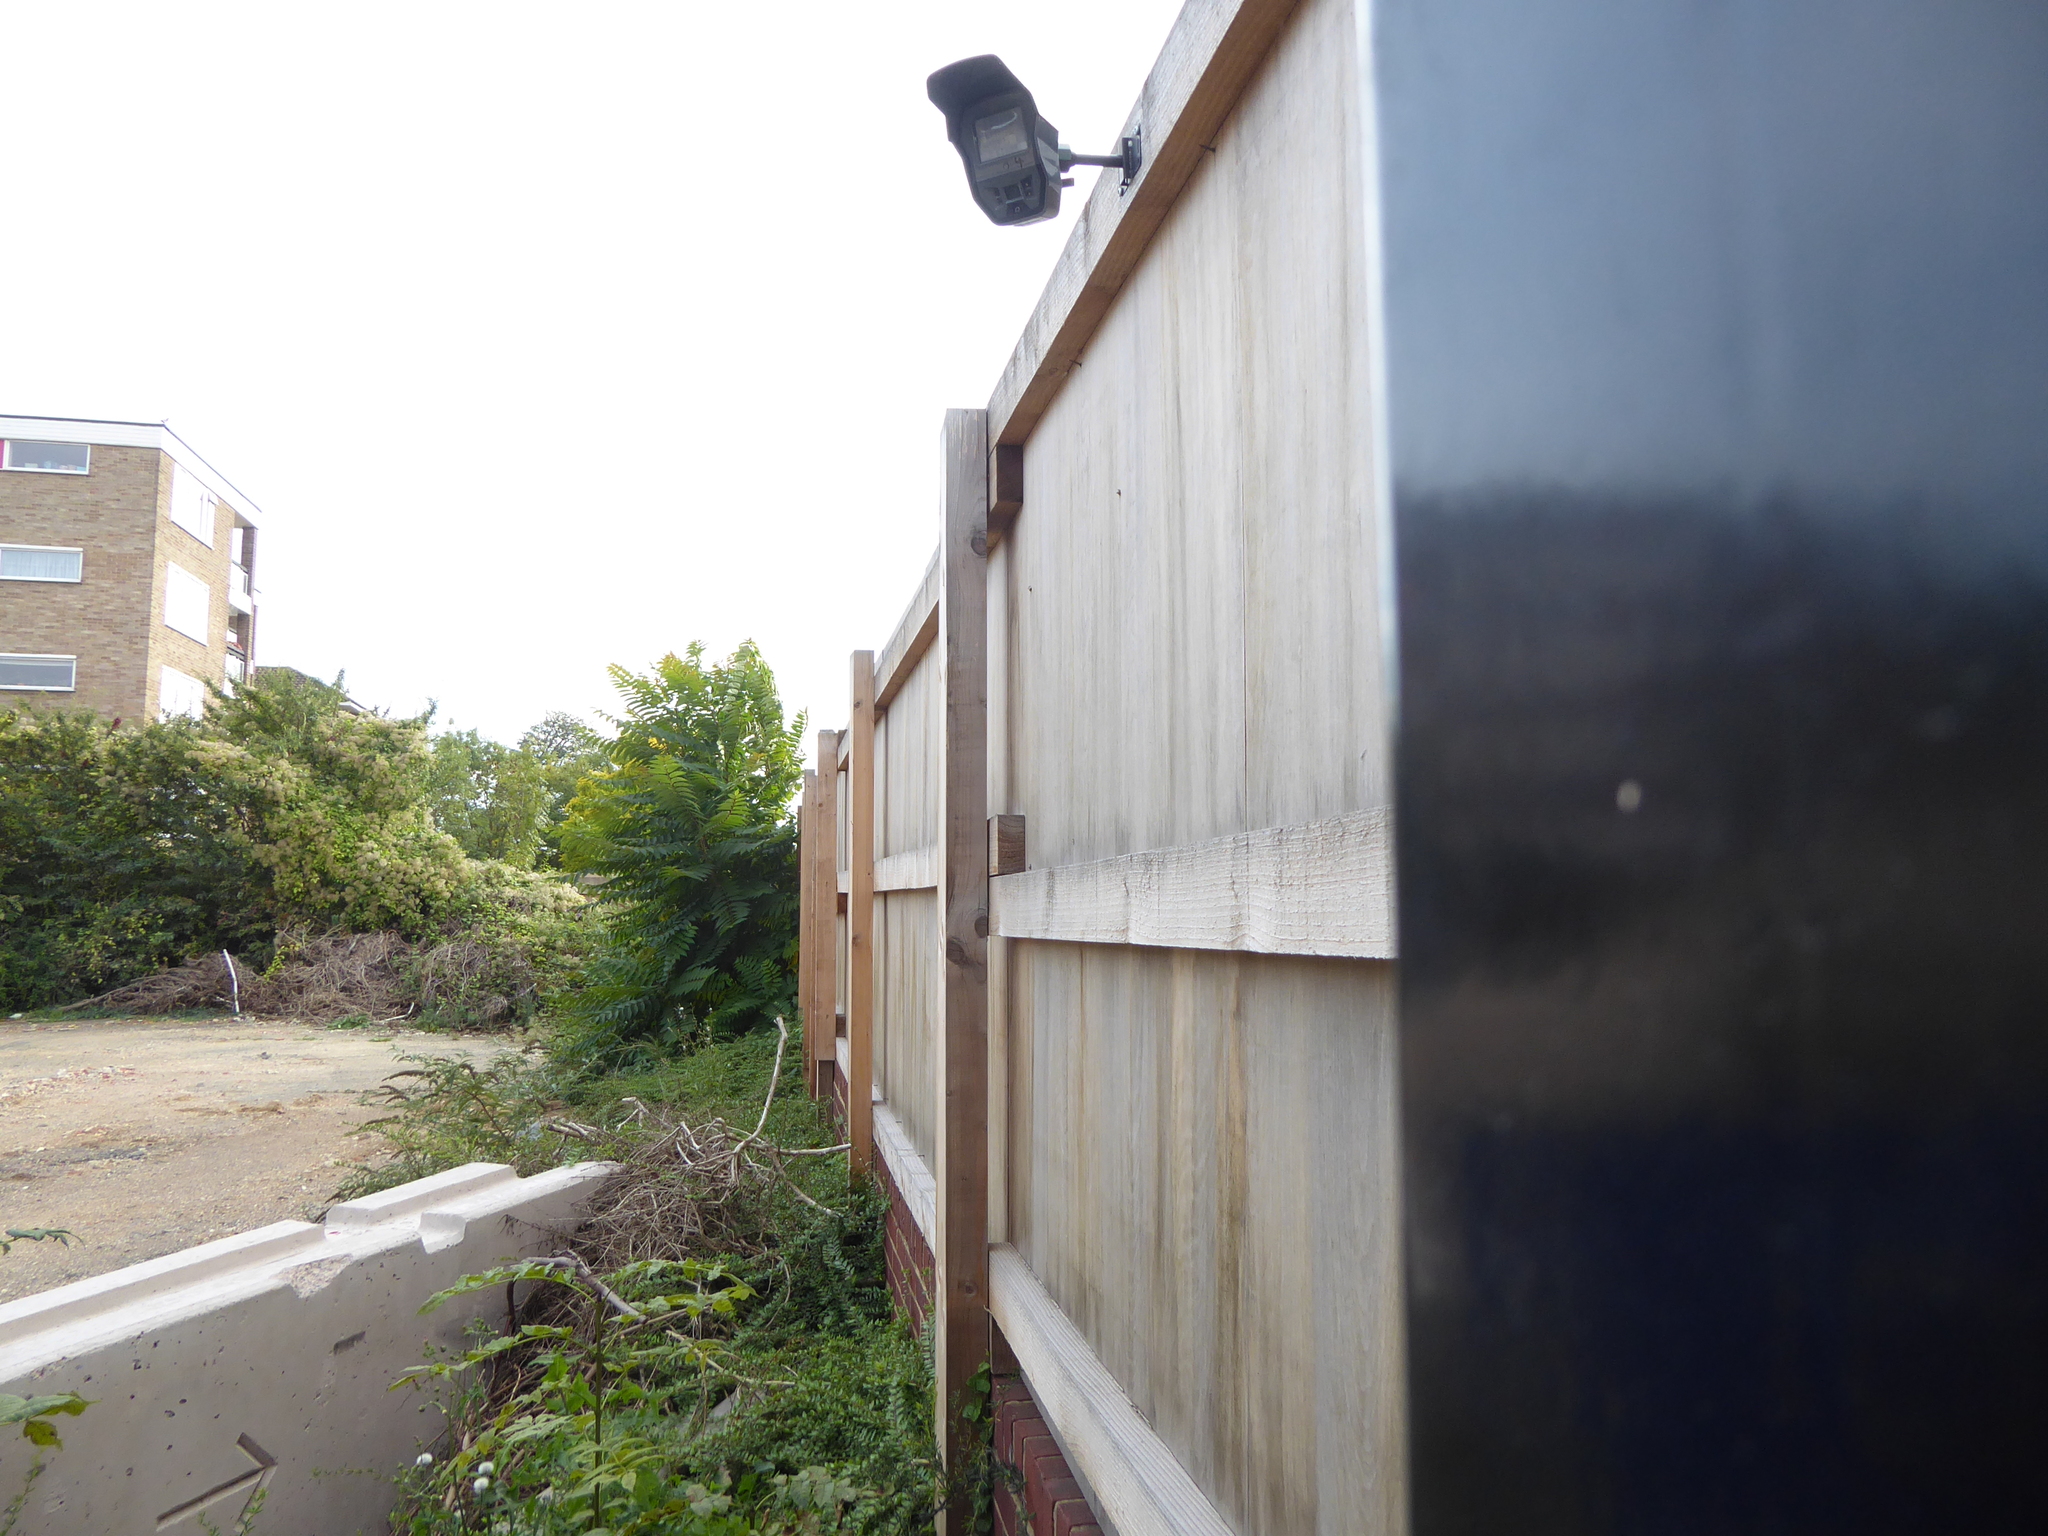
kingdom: Plantae
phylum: Tracheophyta
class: Magnoliopsida
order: Sapindales
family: Simaroubaceae
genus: Ailanthus
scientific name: Ailanthus altissima
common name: Tree-of-heaven
